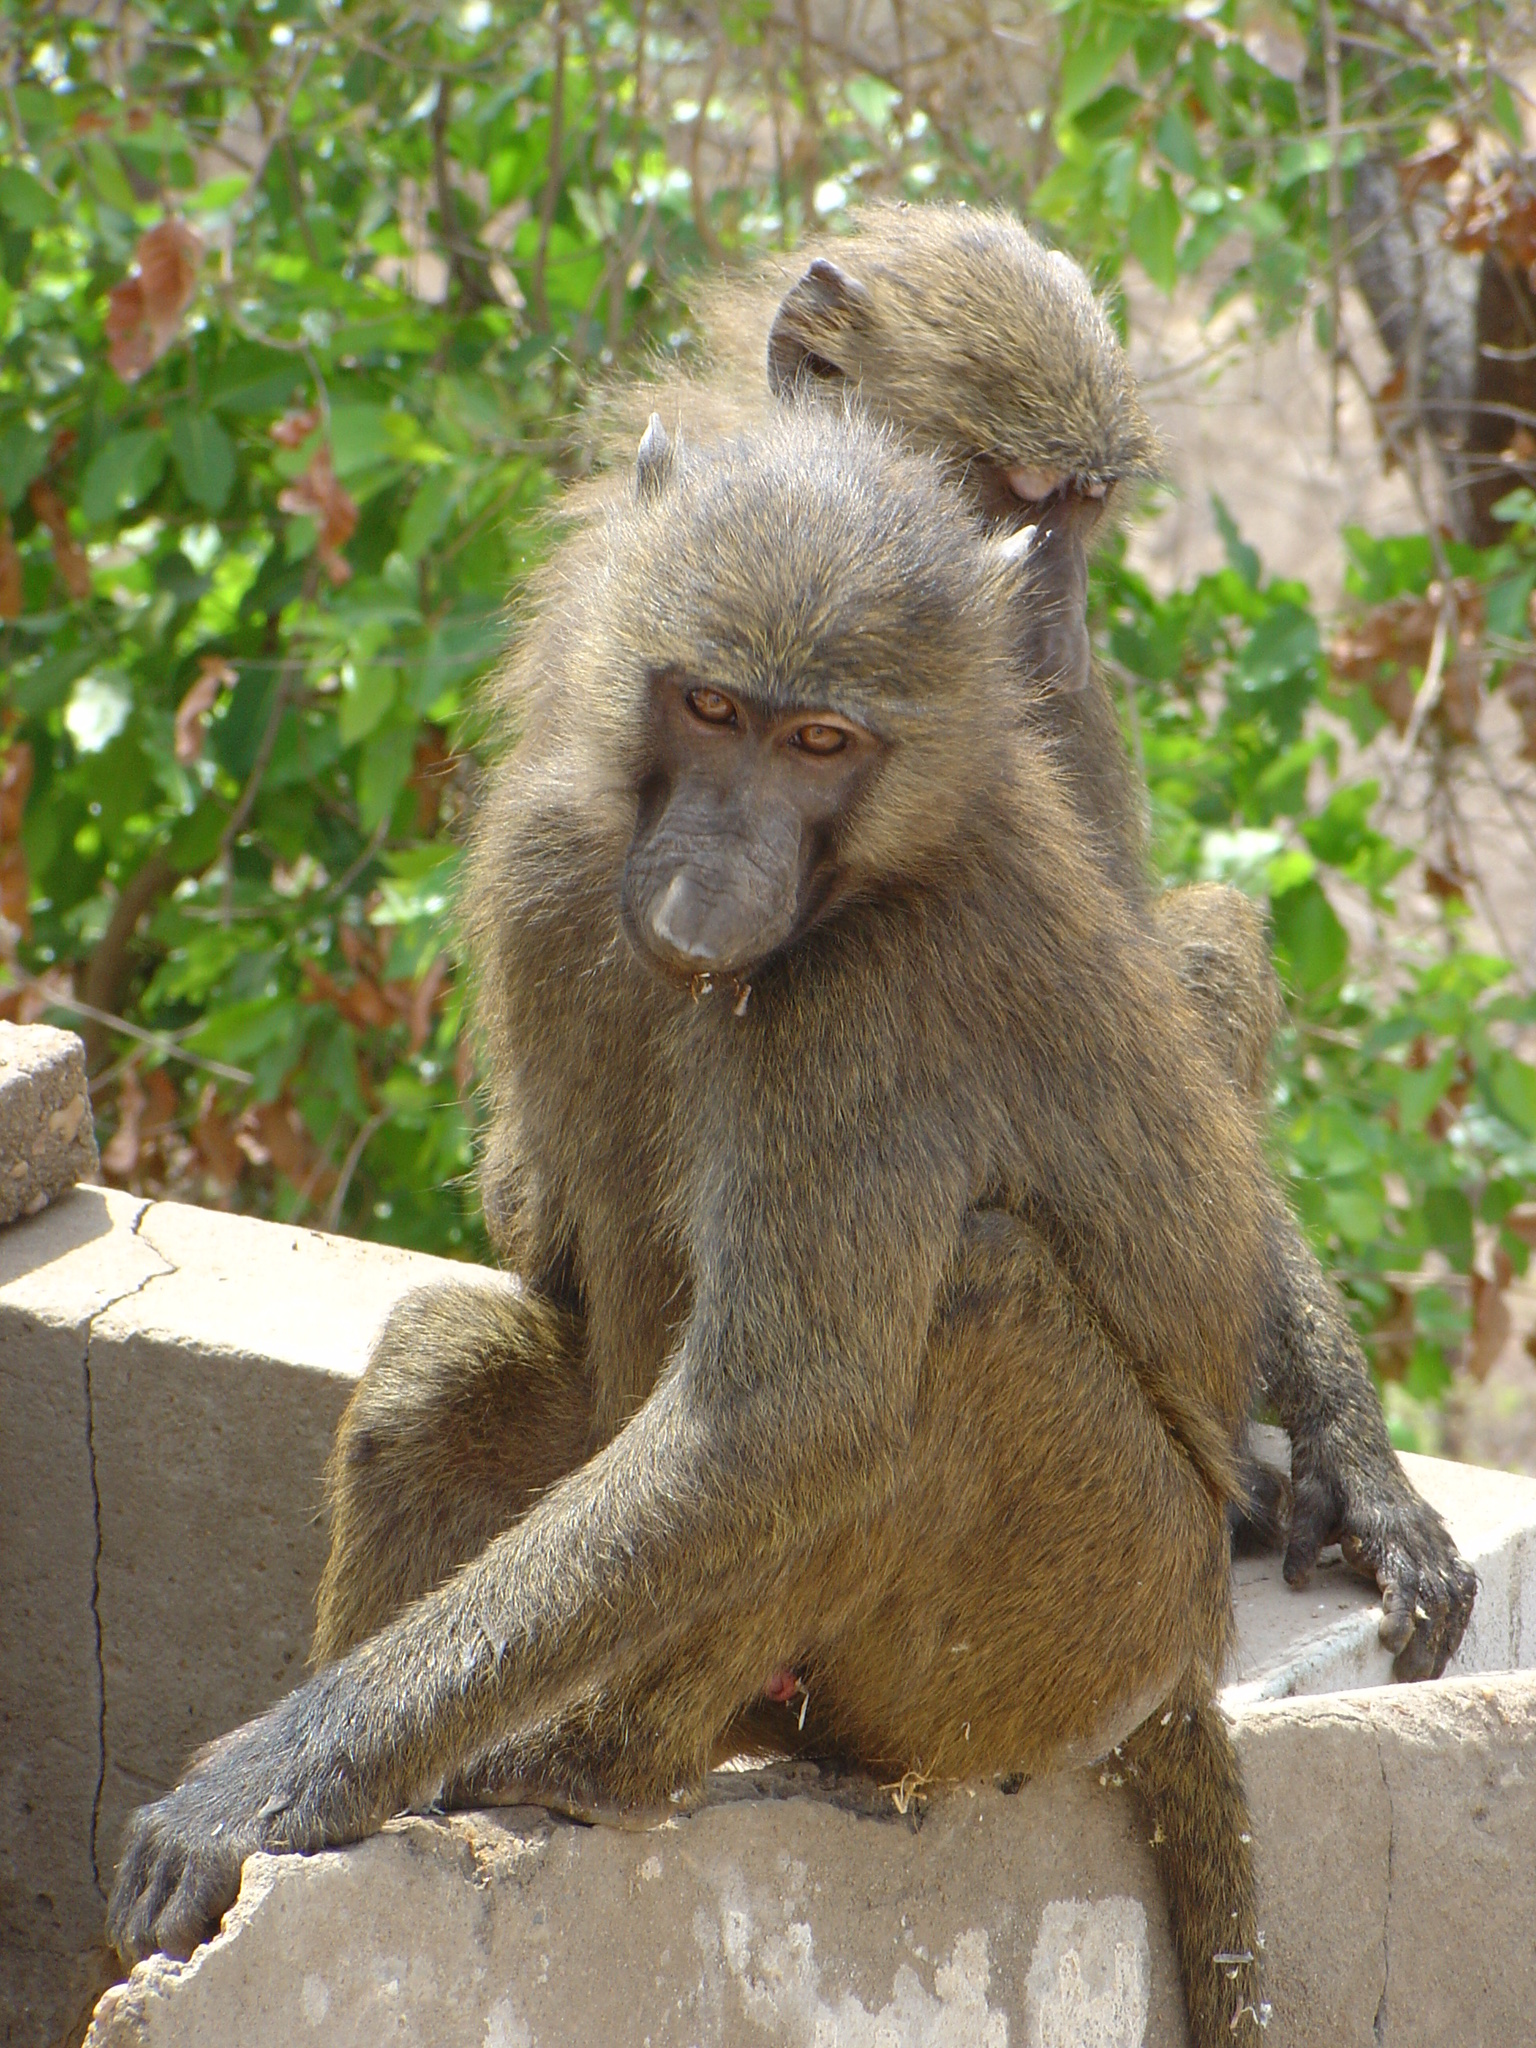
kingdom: Animalia
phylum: Chordata
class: Mammalia
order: Primates
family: Cercopithecidae
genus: Papio
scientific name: Papio anubis
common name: Olive baboon
